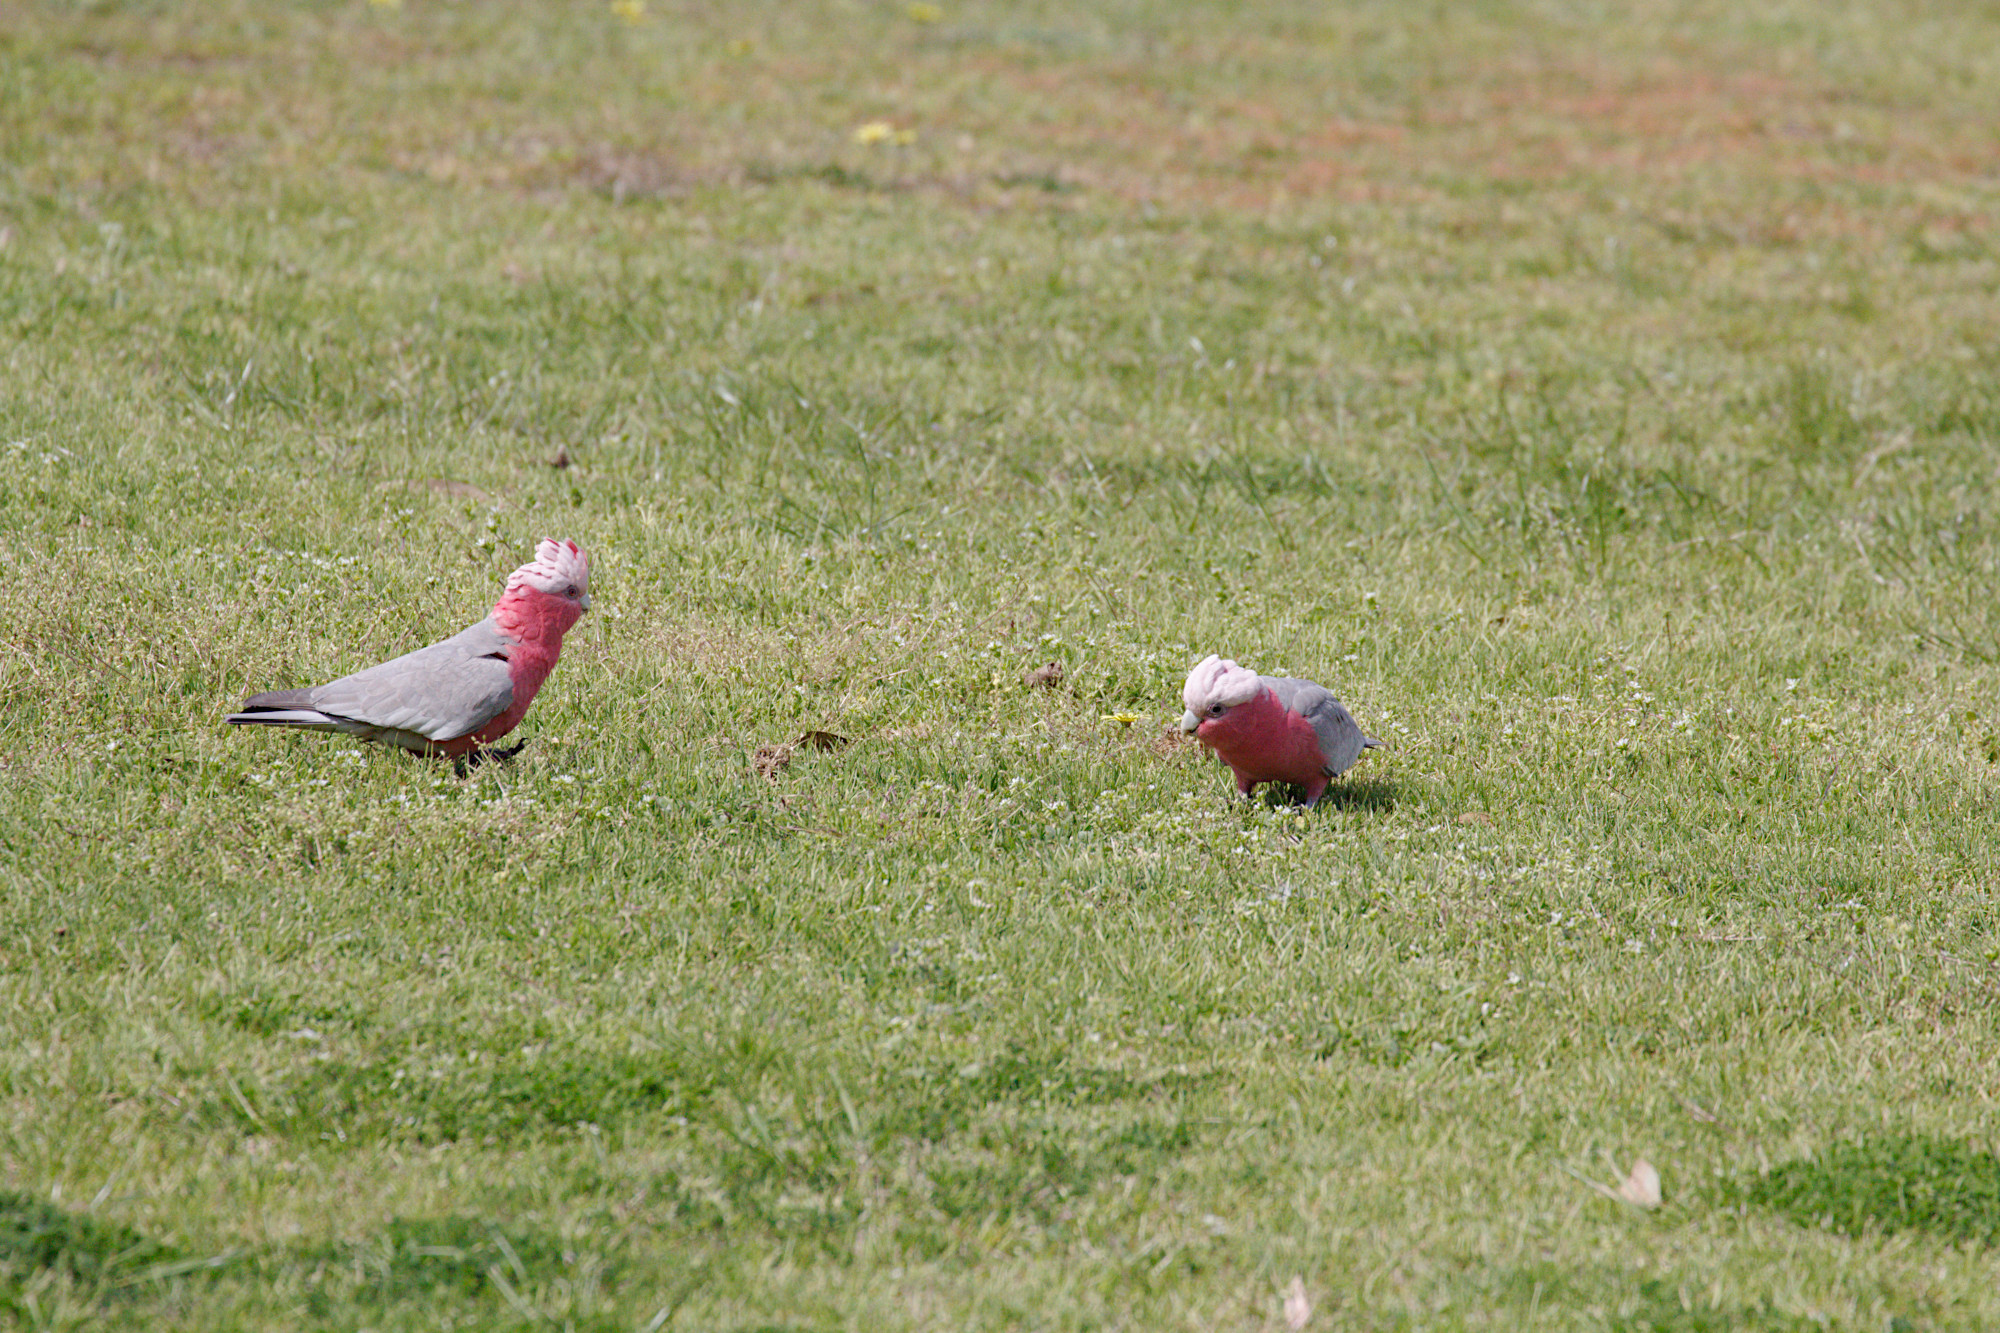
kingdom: Animalia
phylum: Chordata
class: Aves
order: Psittaciformes
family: Psittacidae
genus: Eolophus
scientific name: Eolophus roseicapilla
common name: Galah
